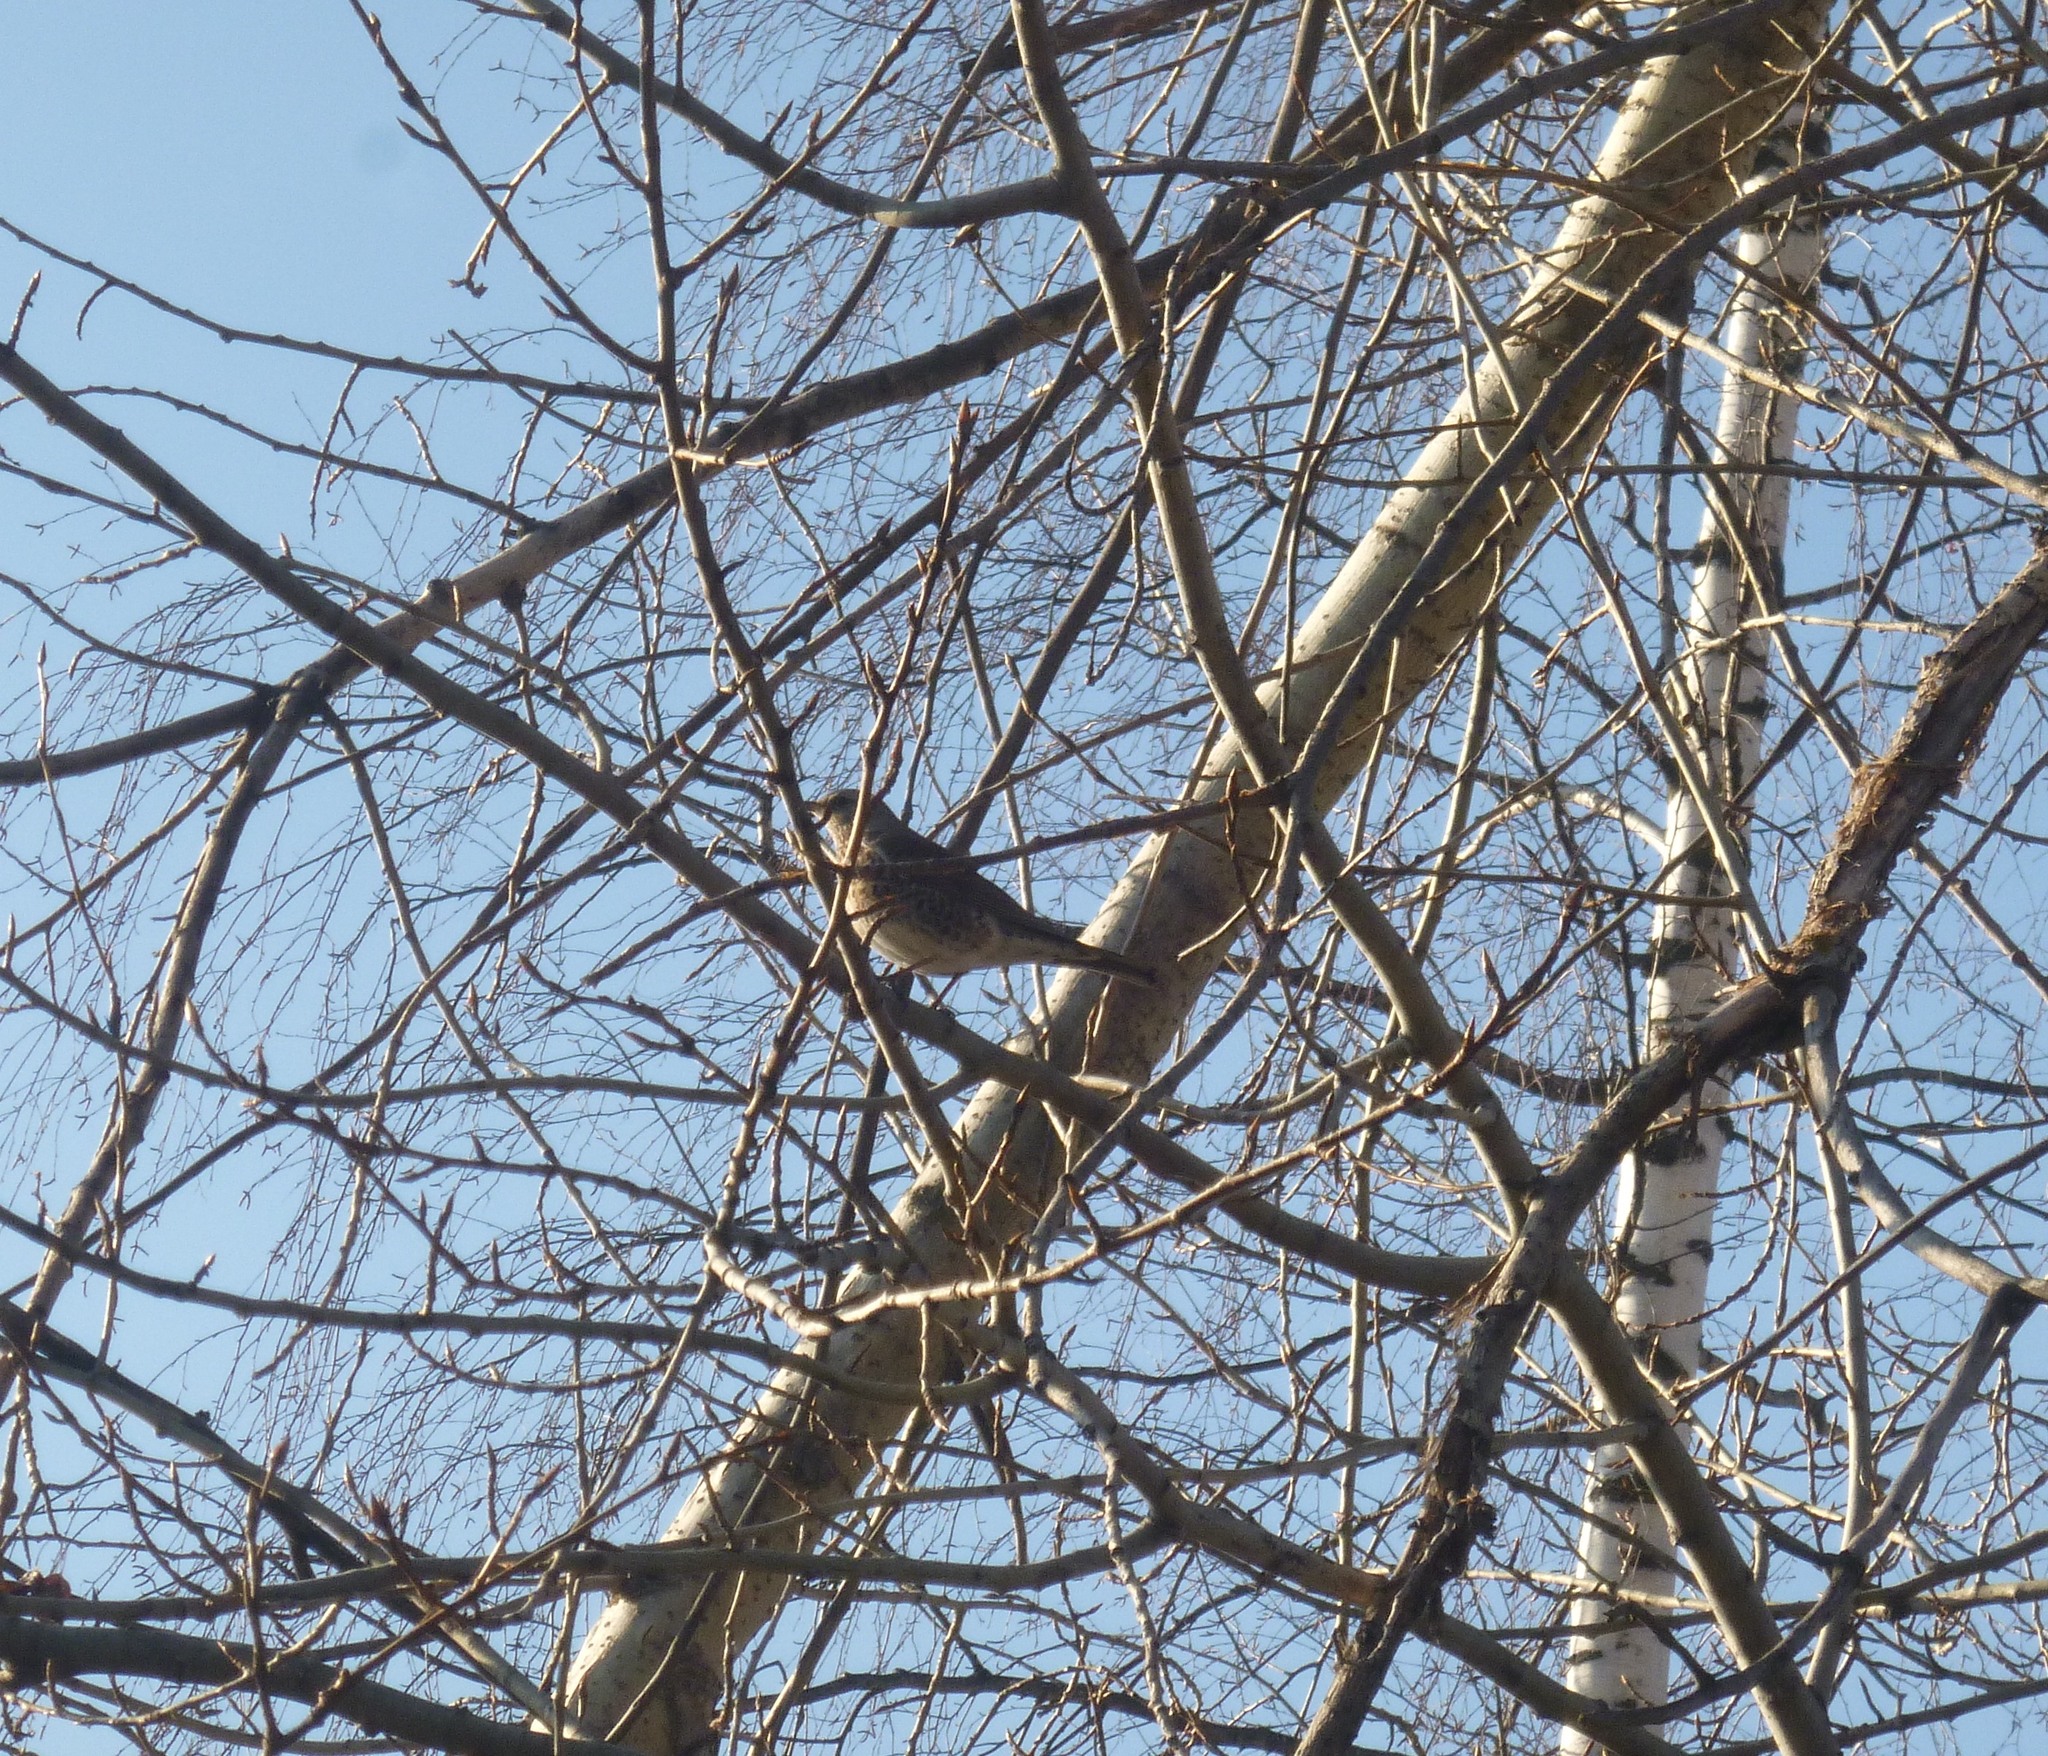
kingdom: Animalia
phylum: Chordata
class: Aves
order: Passeriformes
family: Turdidae
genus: Turdus
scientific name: Turdus pilaris
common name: Fieldfare
